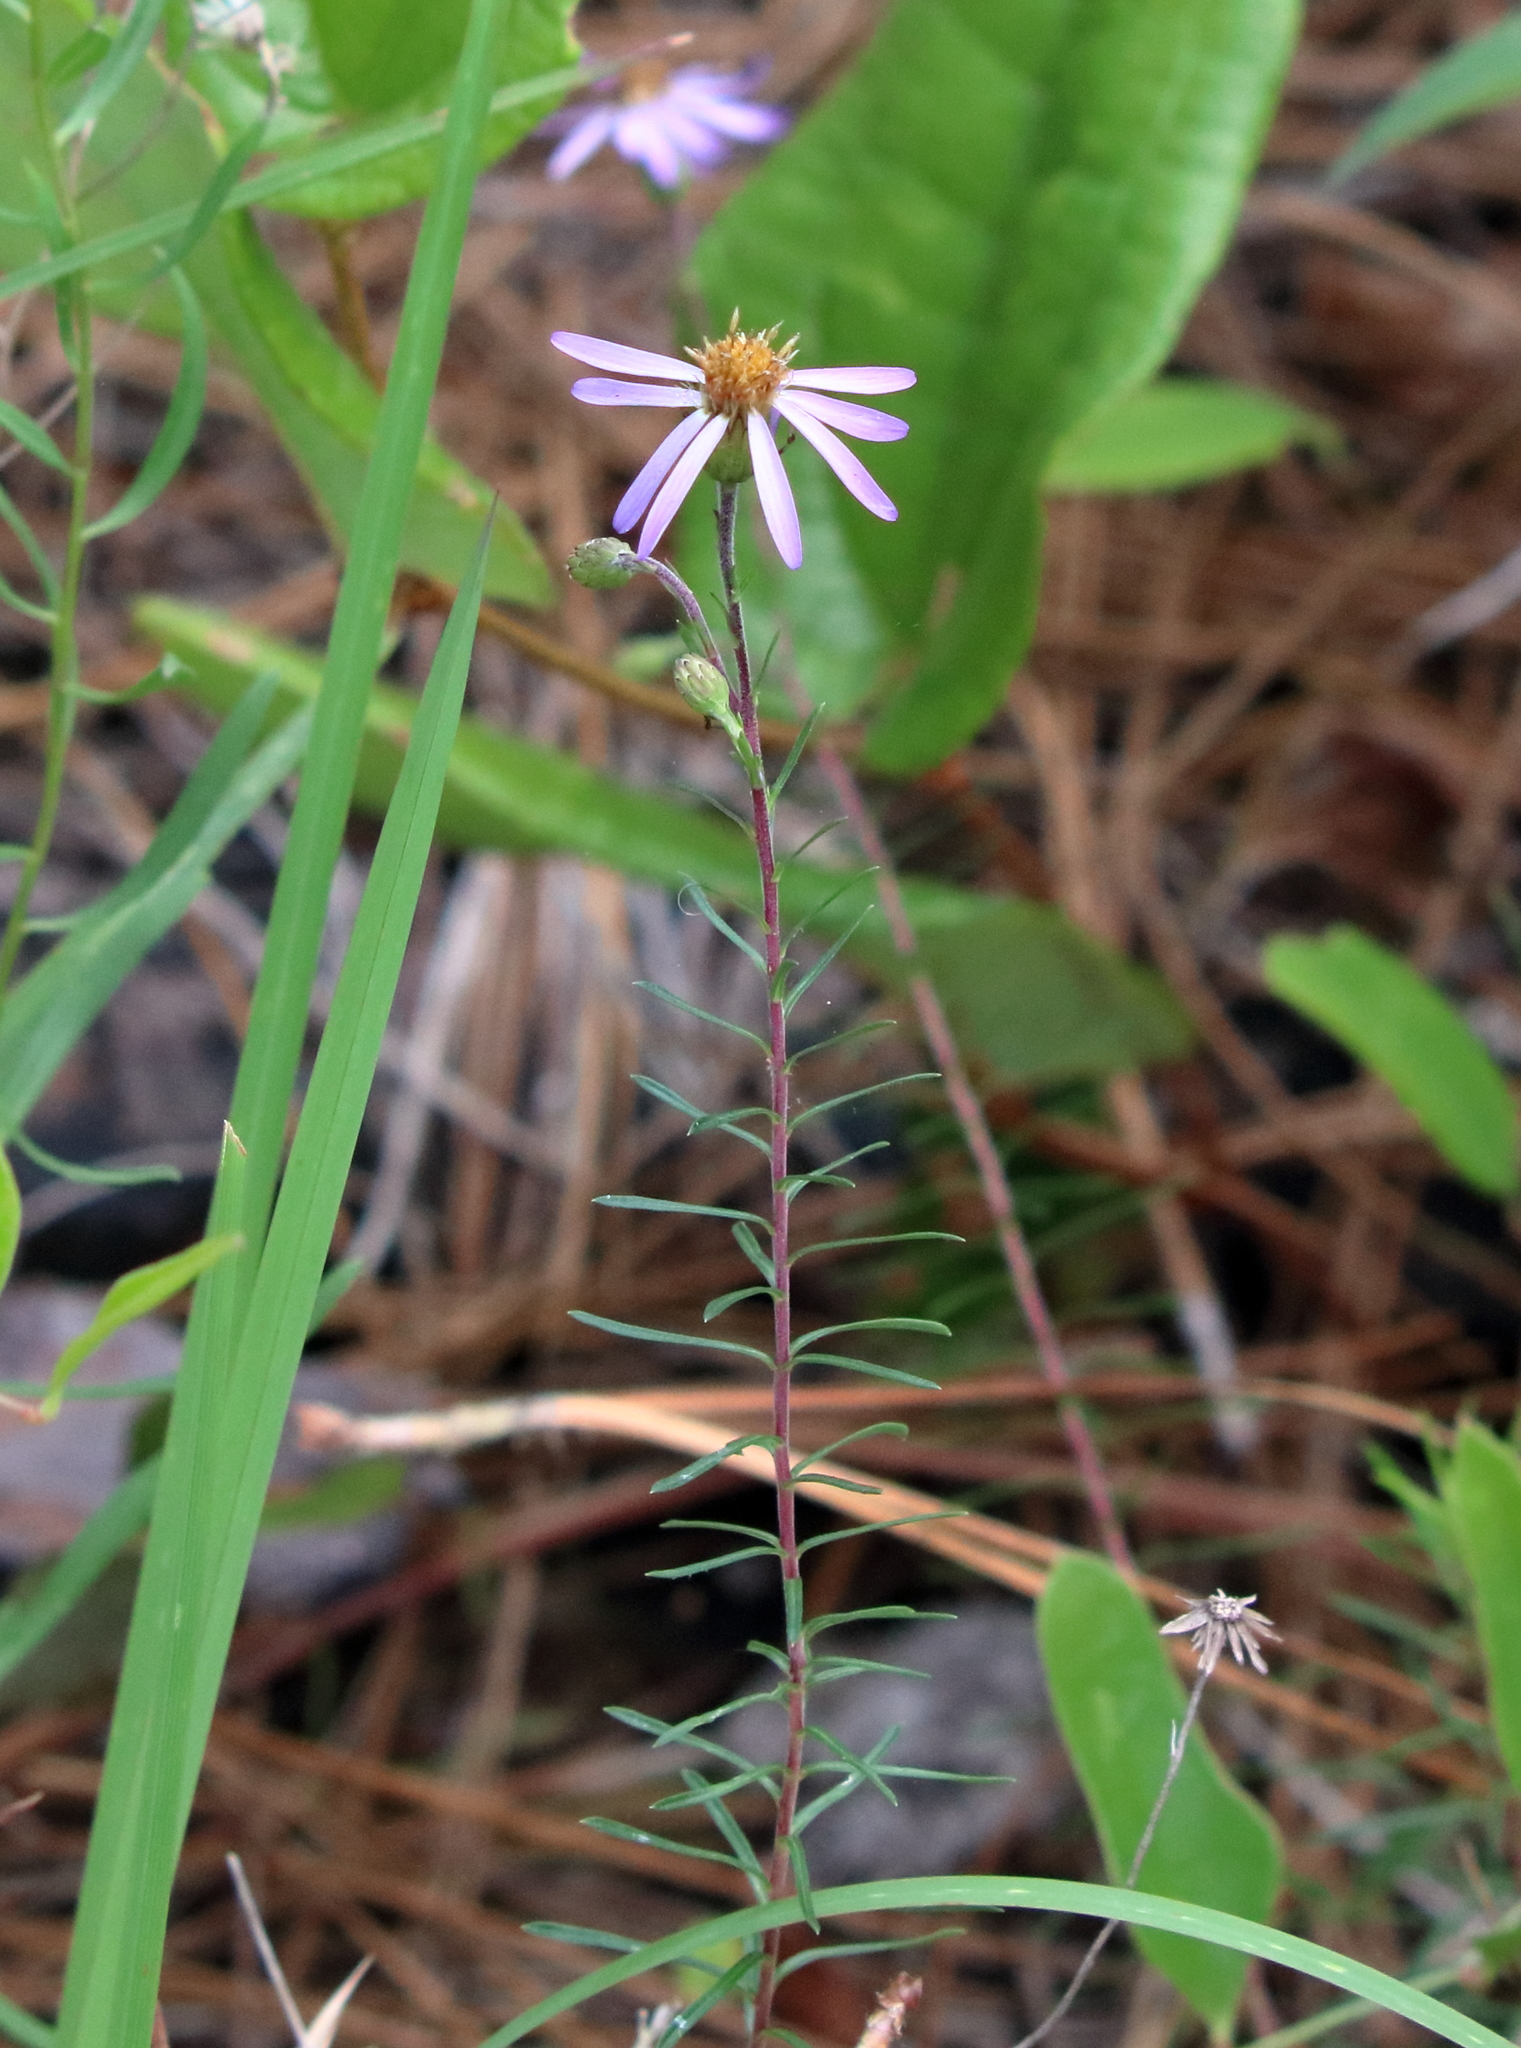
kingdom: Plantae
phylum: Tracheophyta
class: Magnoliopsida
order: Asterales
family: Asteraceae
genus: Ionactis
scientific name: Ionactis repens
